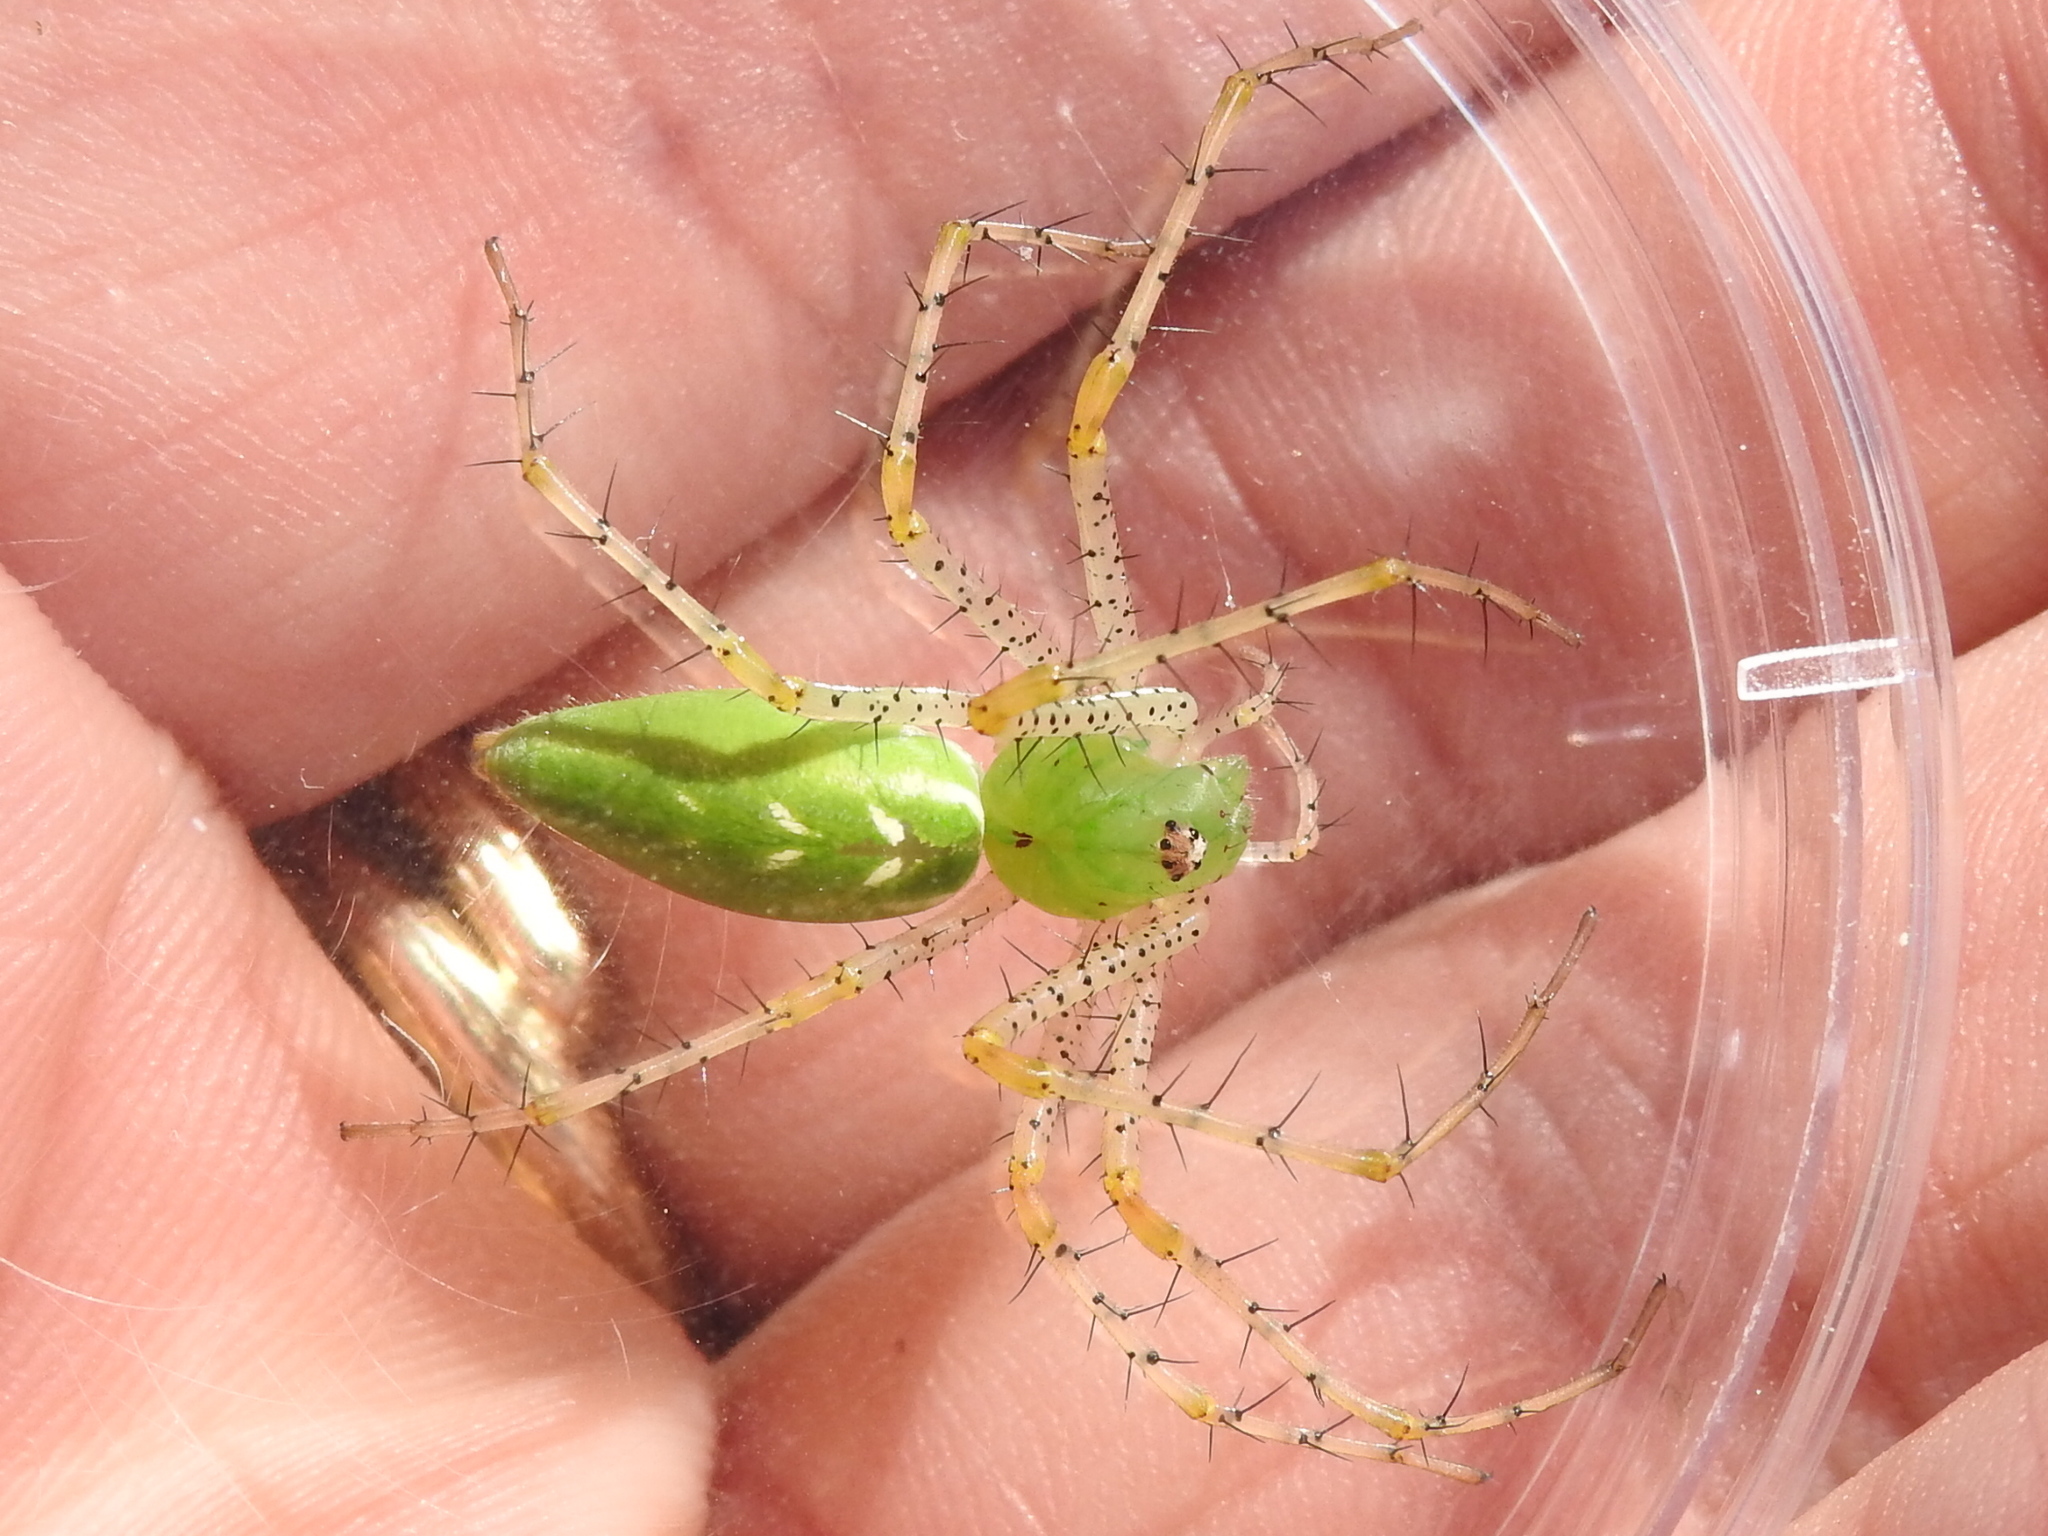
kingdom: Animalia
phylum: Arthropoda
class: Arachnida
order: Araneae
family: Oxyopidae
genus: Peucetia
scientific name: Peucetia viridans
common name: Lynx spiders
